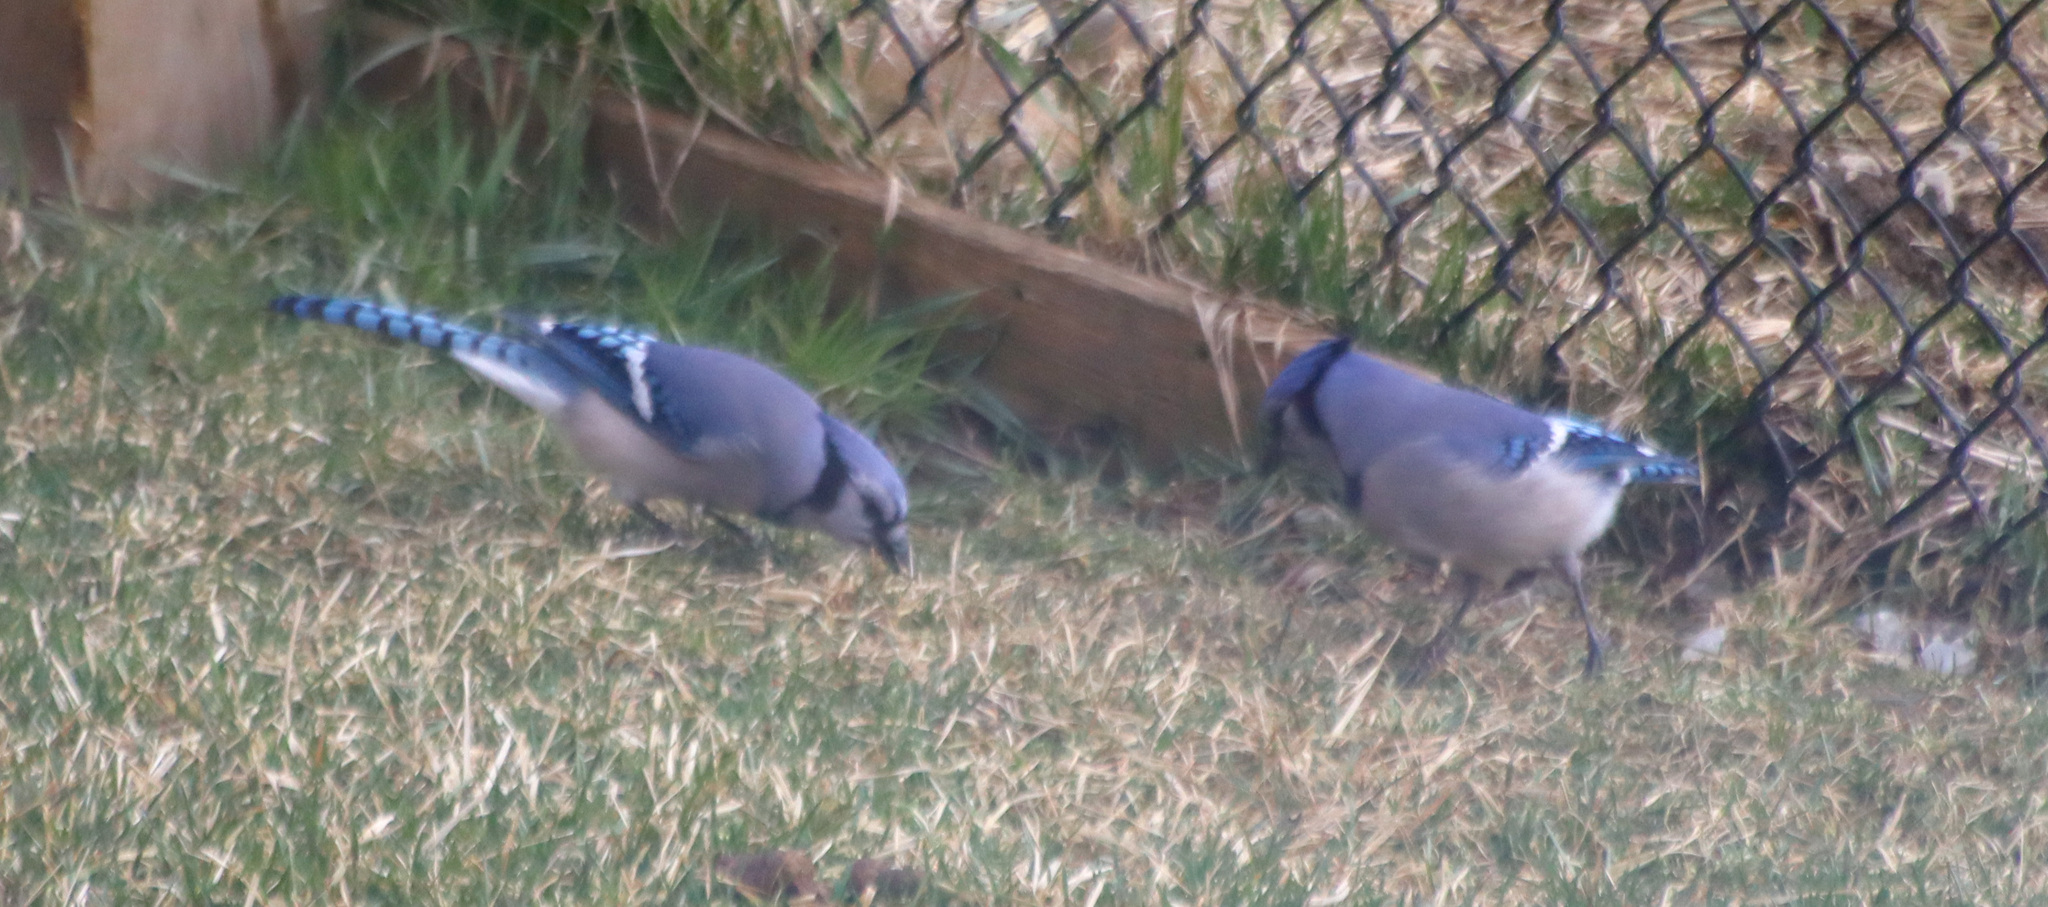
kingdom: Animalia
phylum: Chordata
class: Aves
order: Passeriformes
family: Corvidae
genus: Cyanocitta
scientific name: Cyanocitta cristata
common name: Blue jay
